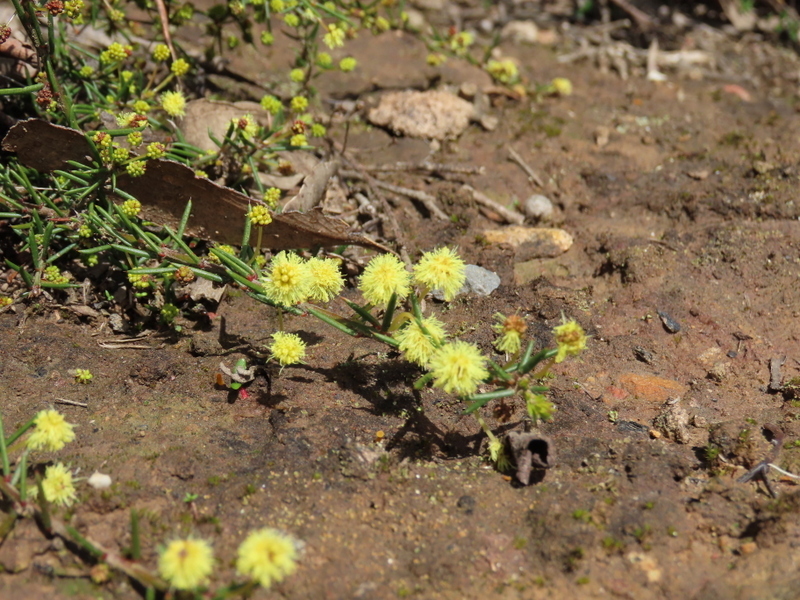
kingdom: Plantae
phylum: Tracheophyta
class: Magnoliopsida
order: Fabales
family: Fabaceae
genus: Acacia
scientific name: Acacia aculeatissima
